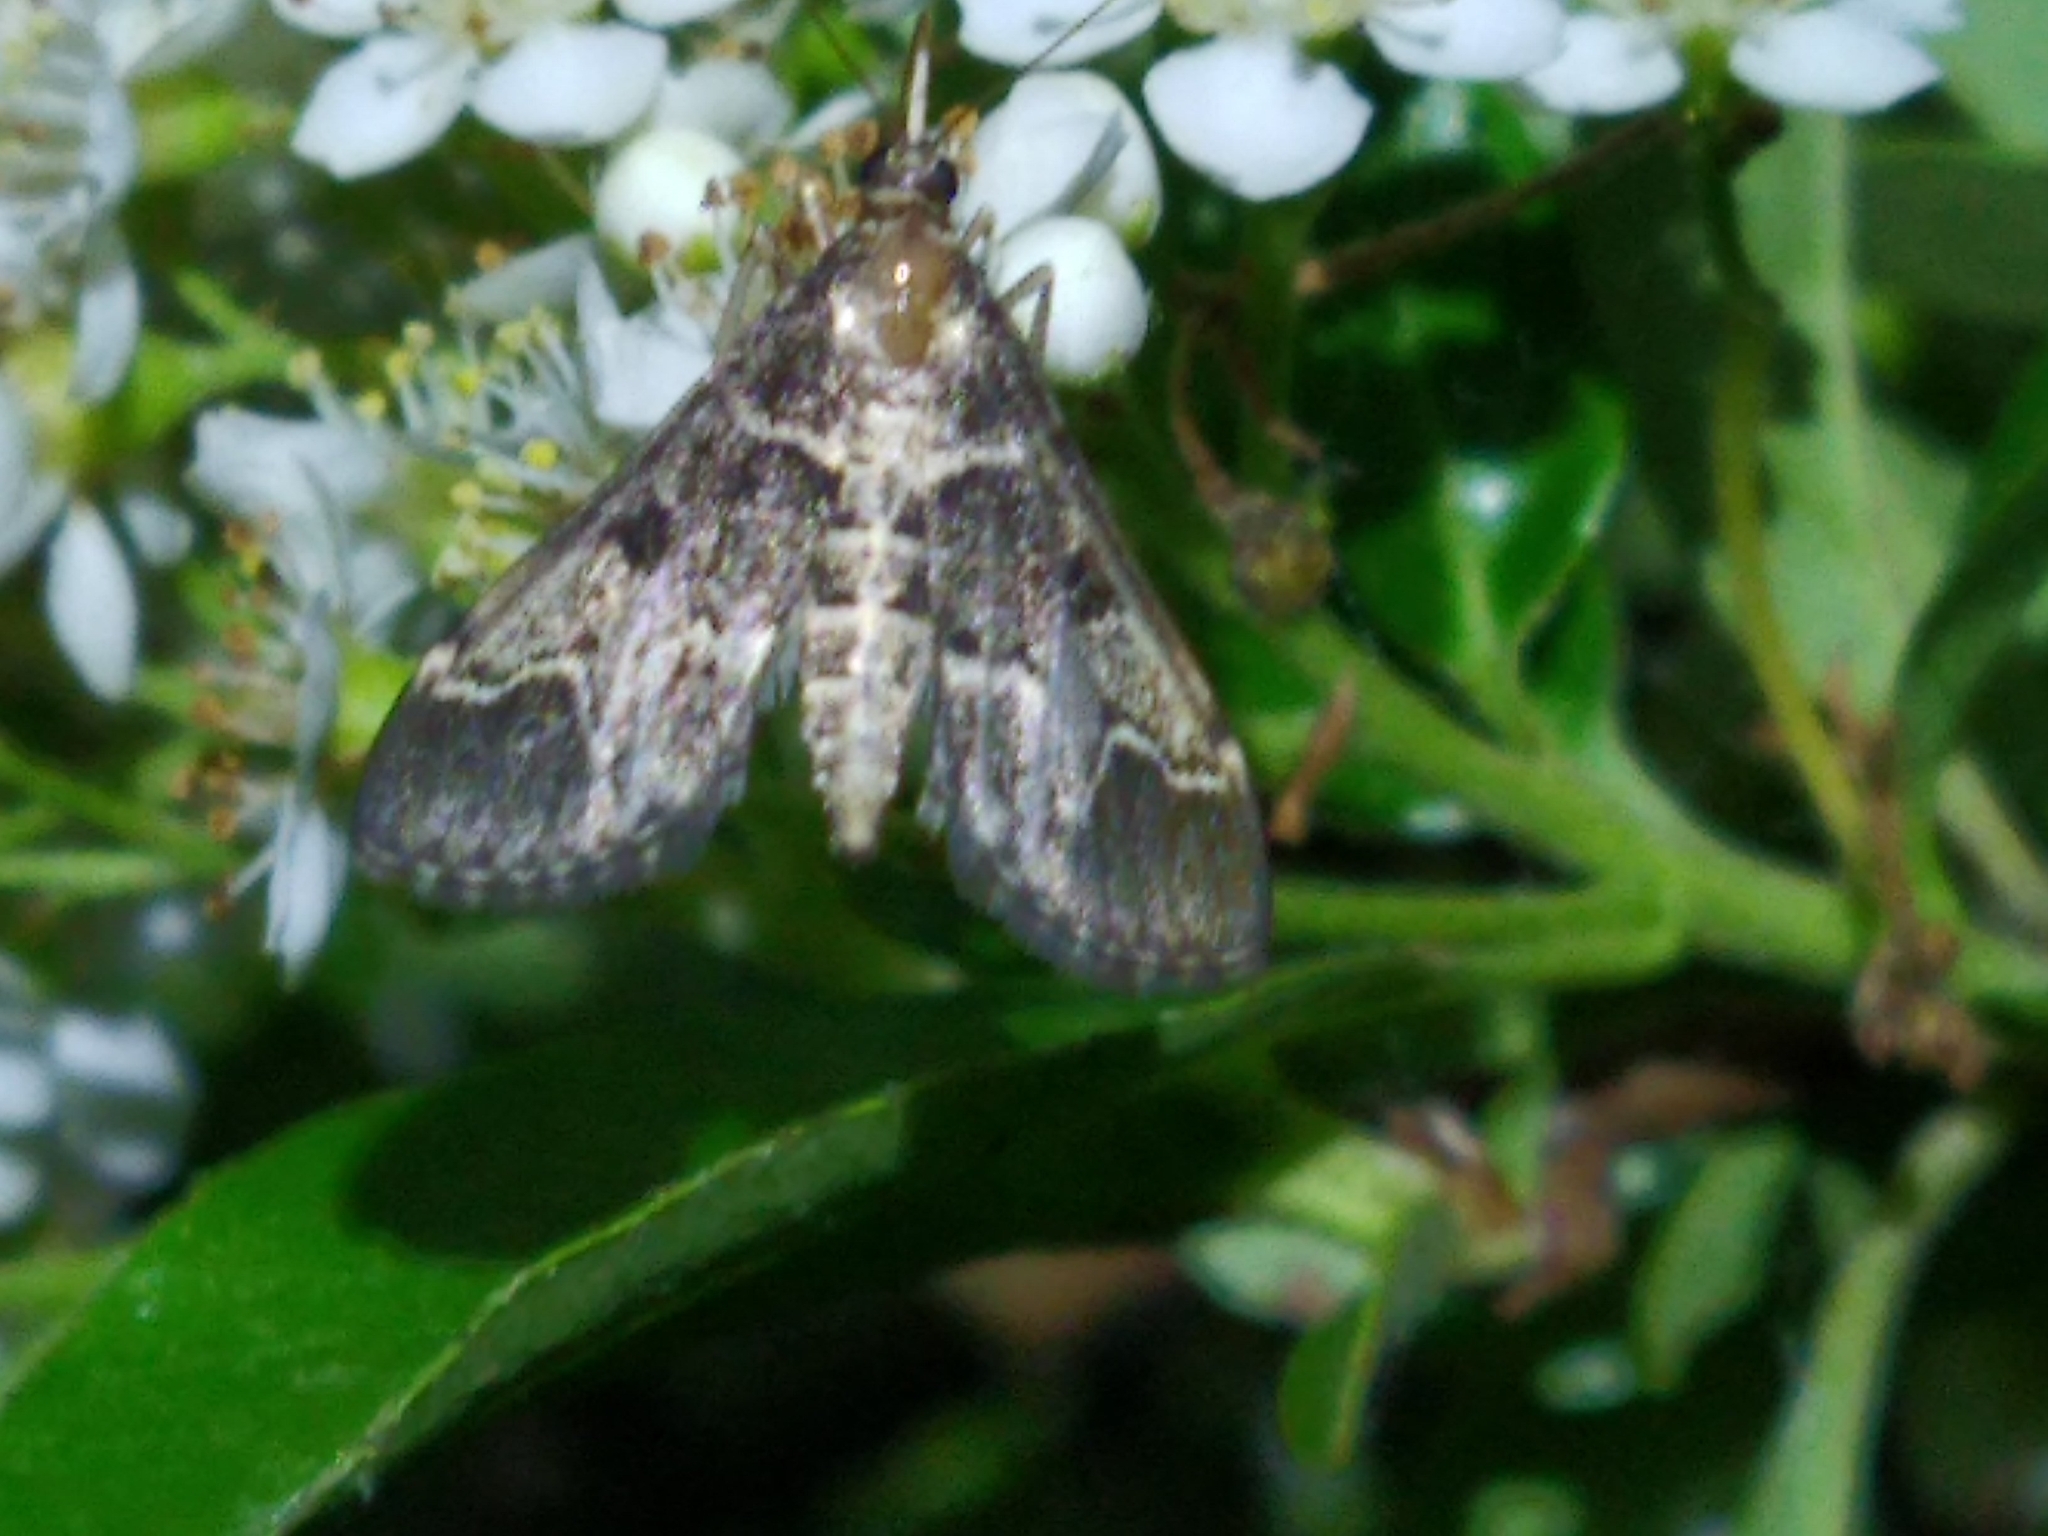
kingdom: Animalia
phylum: Arthropoda
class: Insecta
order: Lepidoptera
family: Crambidae
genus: Duponchelia
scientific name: Duponchelia fovealis
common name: Crambid moth
